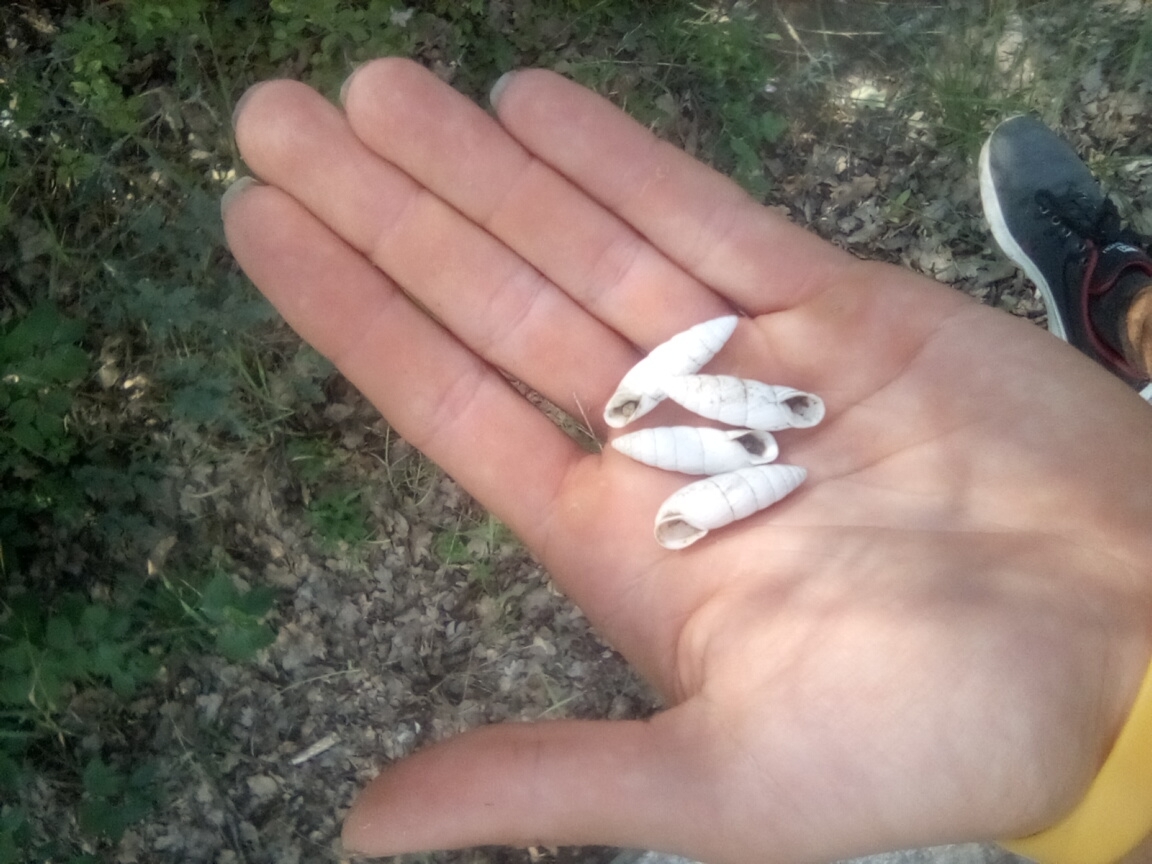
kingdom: Animalia
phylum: Mollusca
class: Gastropoda
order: Stylommatophora
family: Enidae
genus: Brephulopsis
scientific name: Brephulopsis cylindrica
